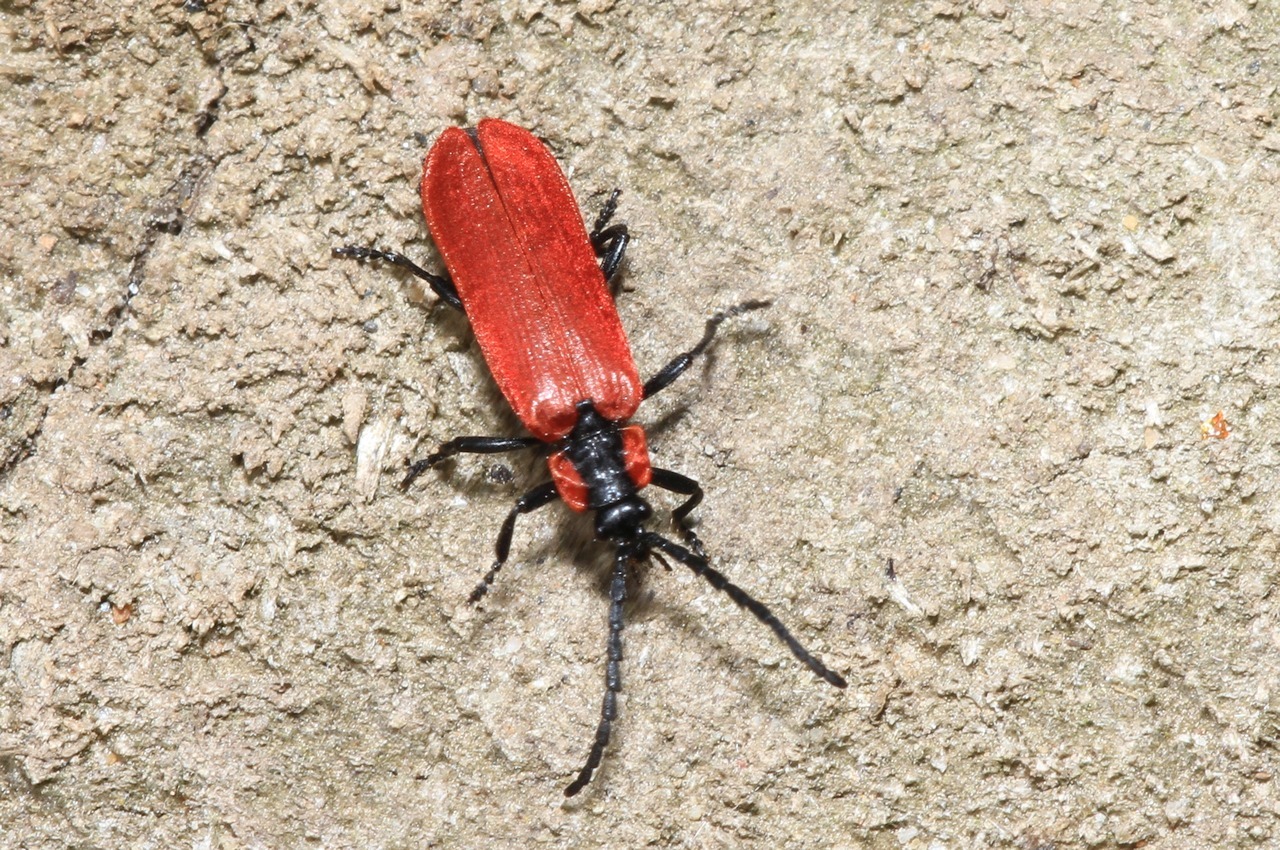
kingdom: Animalia
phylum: Arthropoda
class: Insecta
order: Coleoptera
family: Lycidae
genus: Lygistopterus
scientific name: Lygistopterus sanguineus
